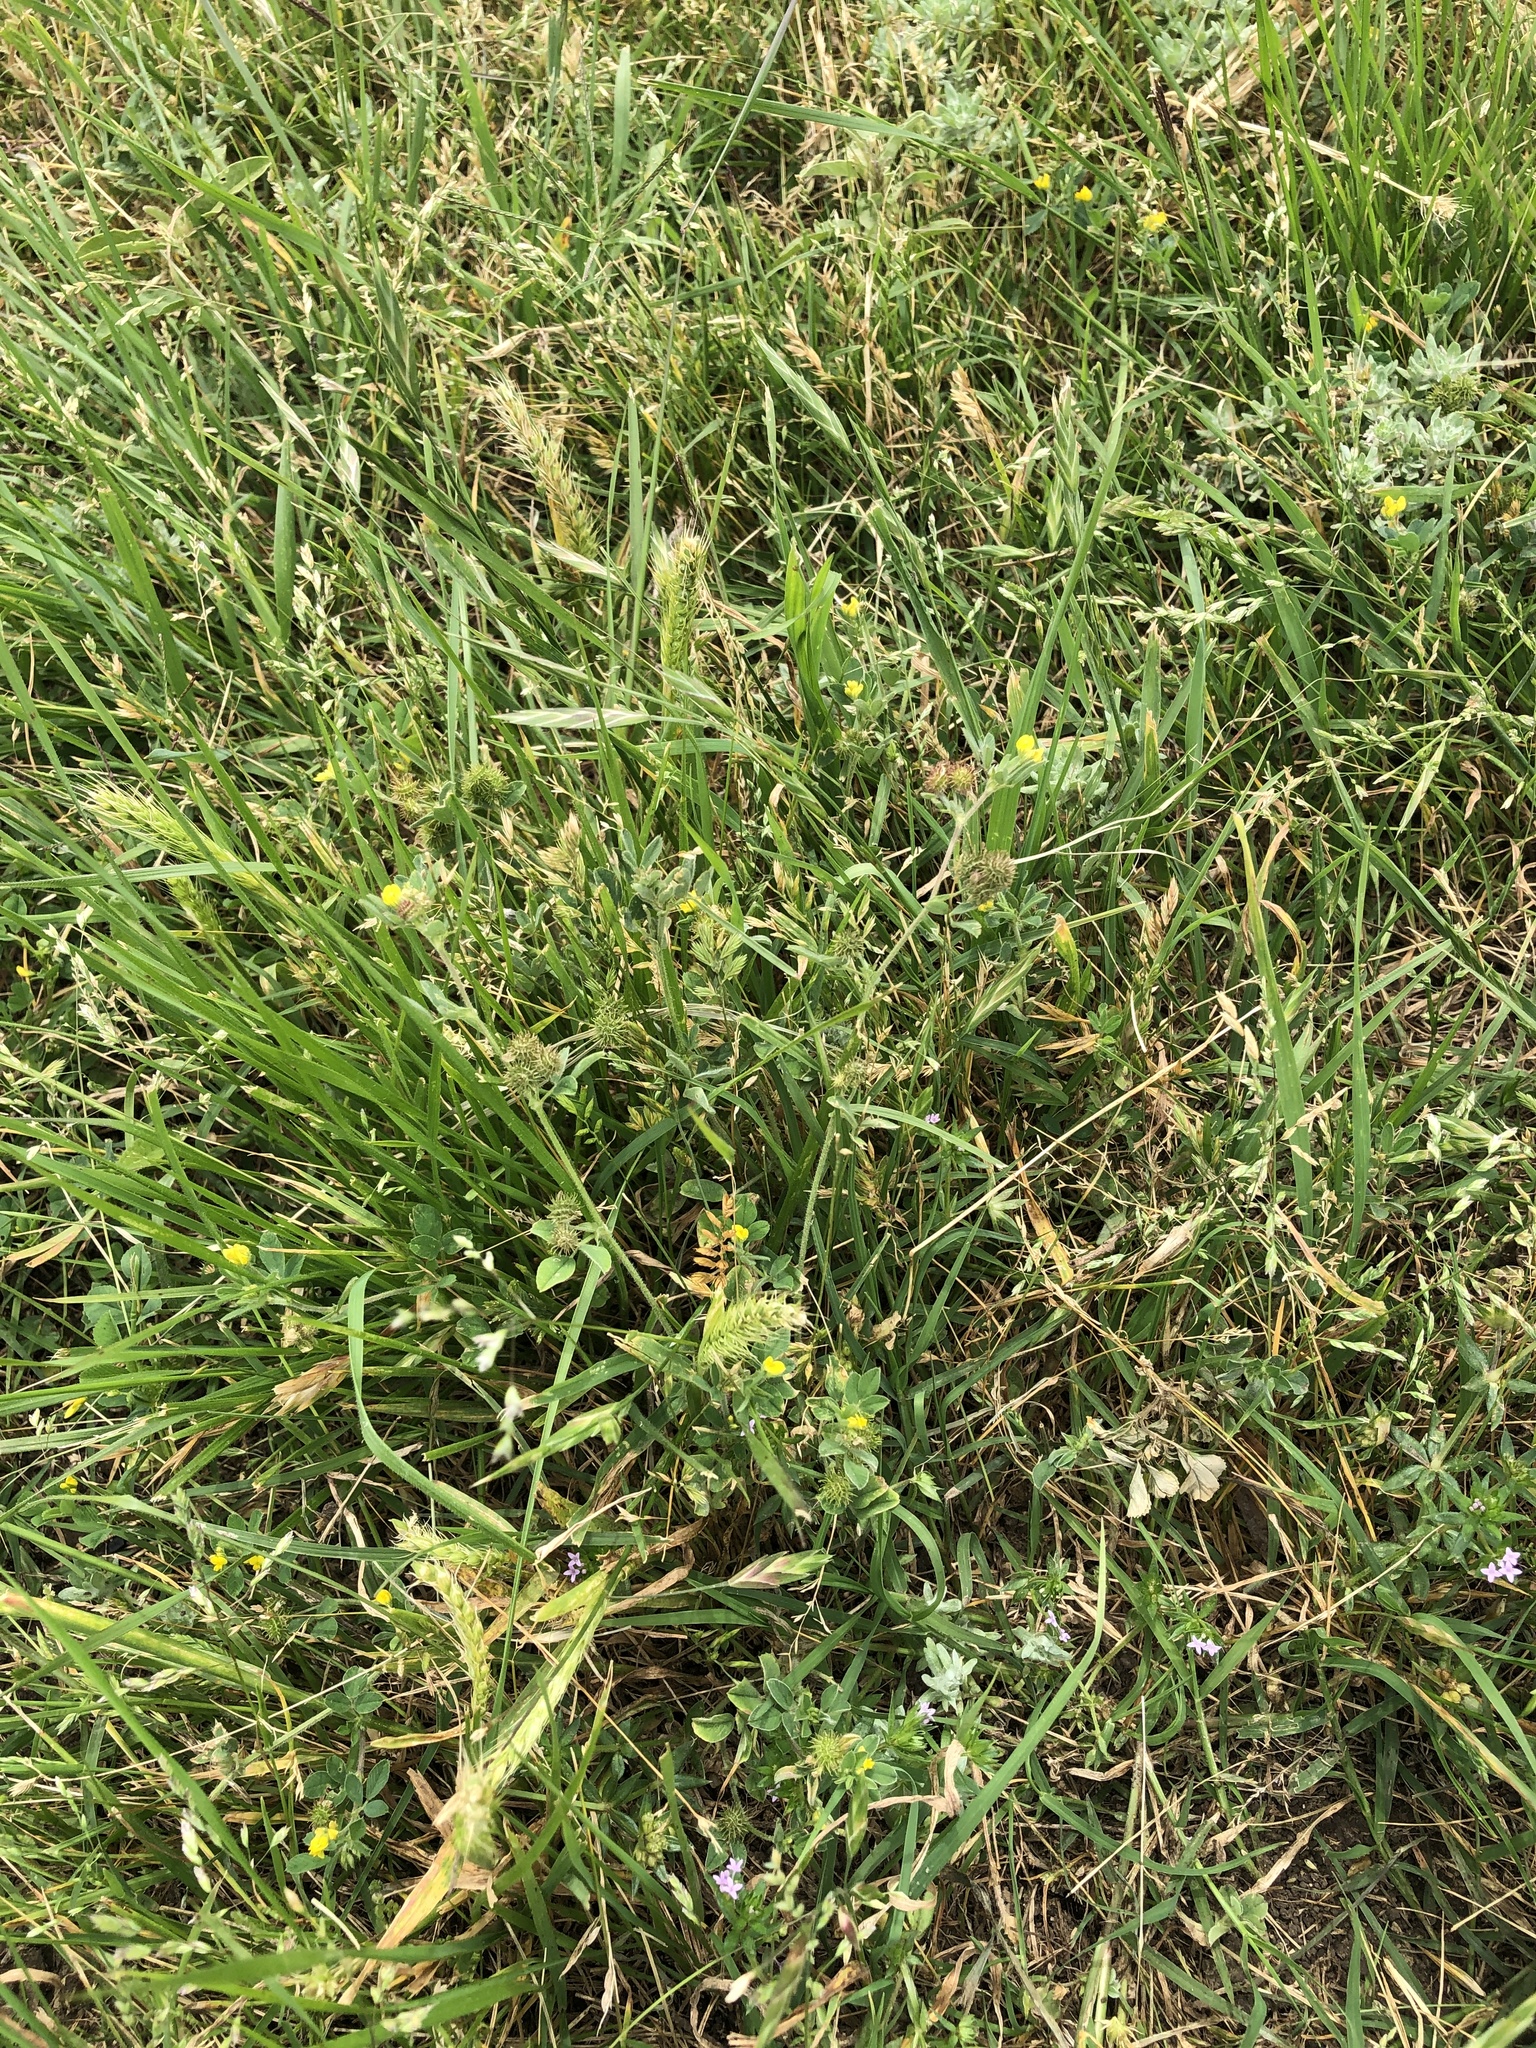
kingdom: Plantae
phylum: Tracheophyta
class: Magnoliopsida
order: Fabales
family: Fabaceae
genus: Medicago
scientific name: Medicago minima
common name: Little bur-clover
